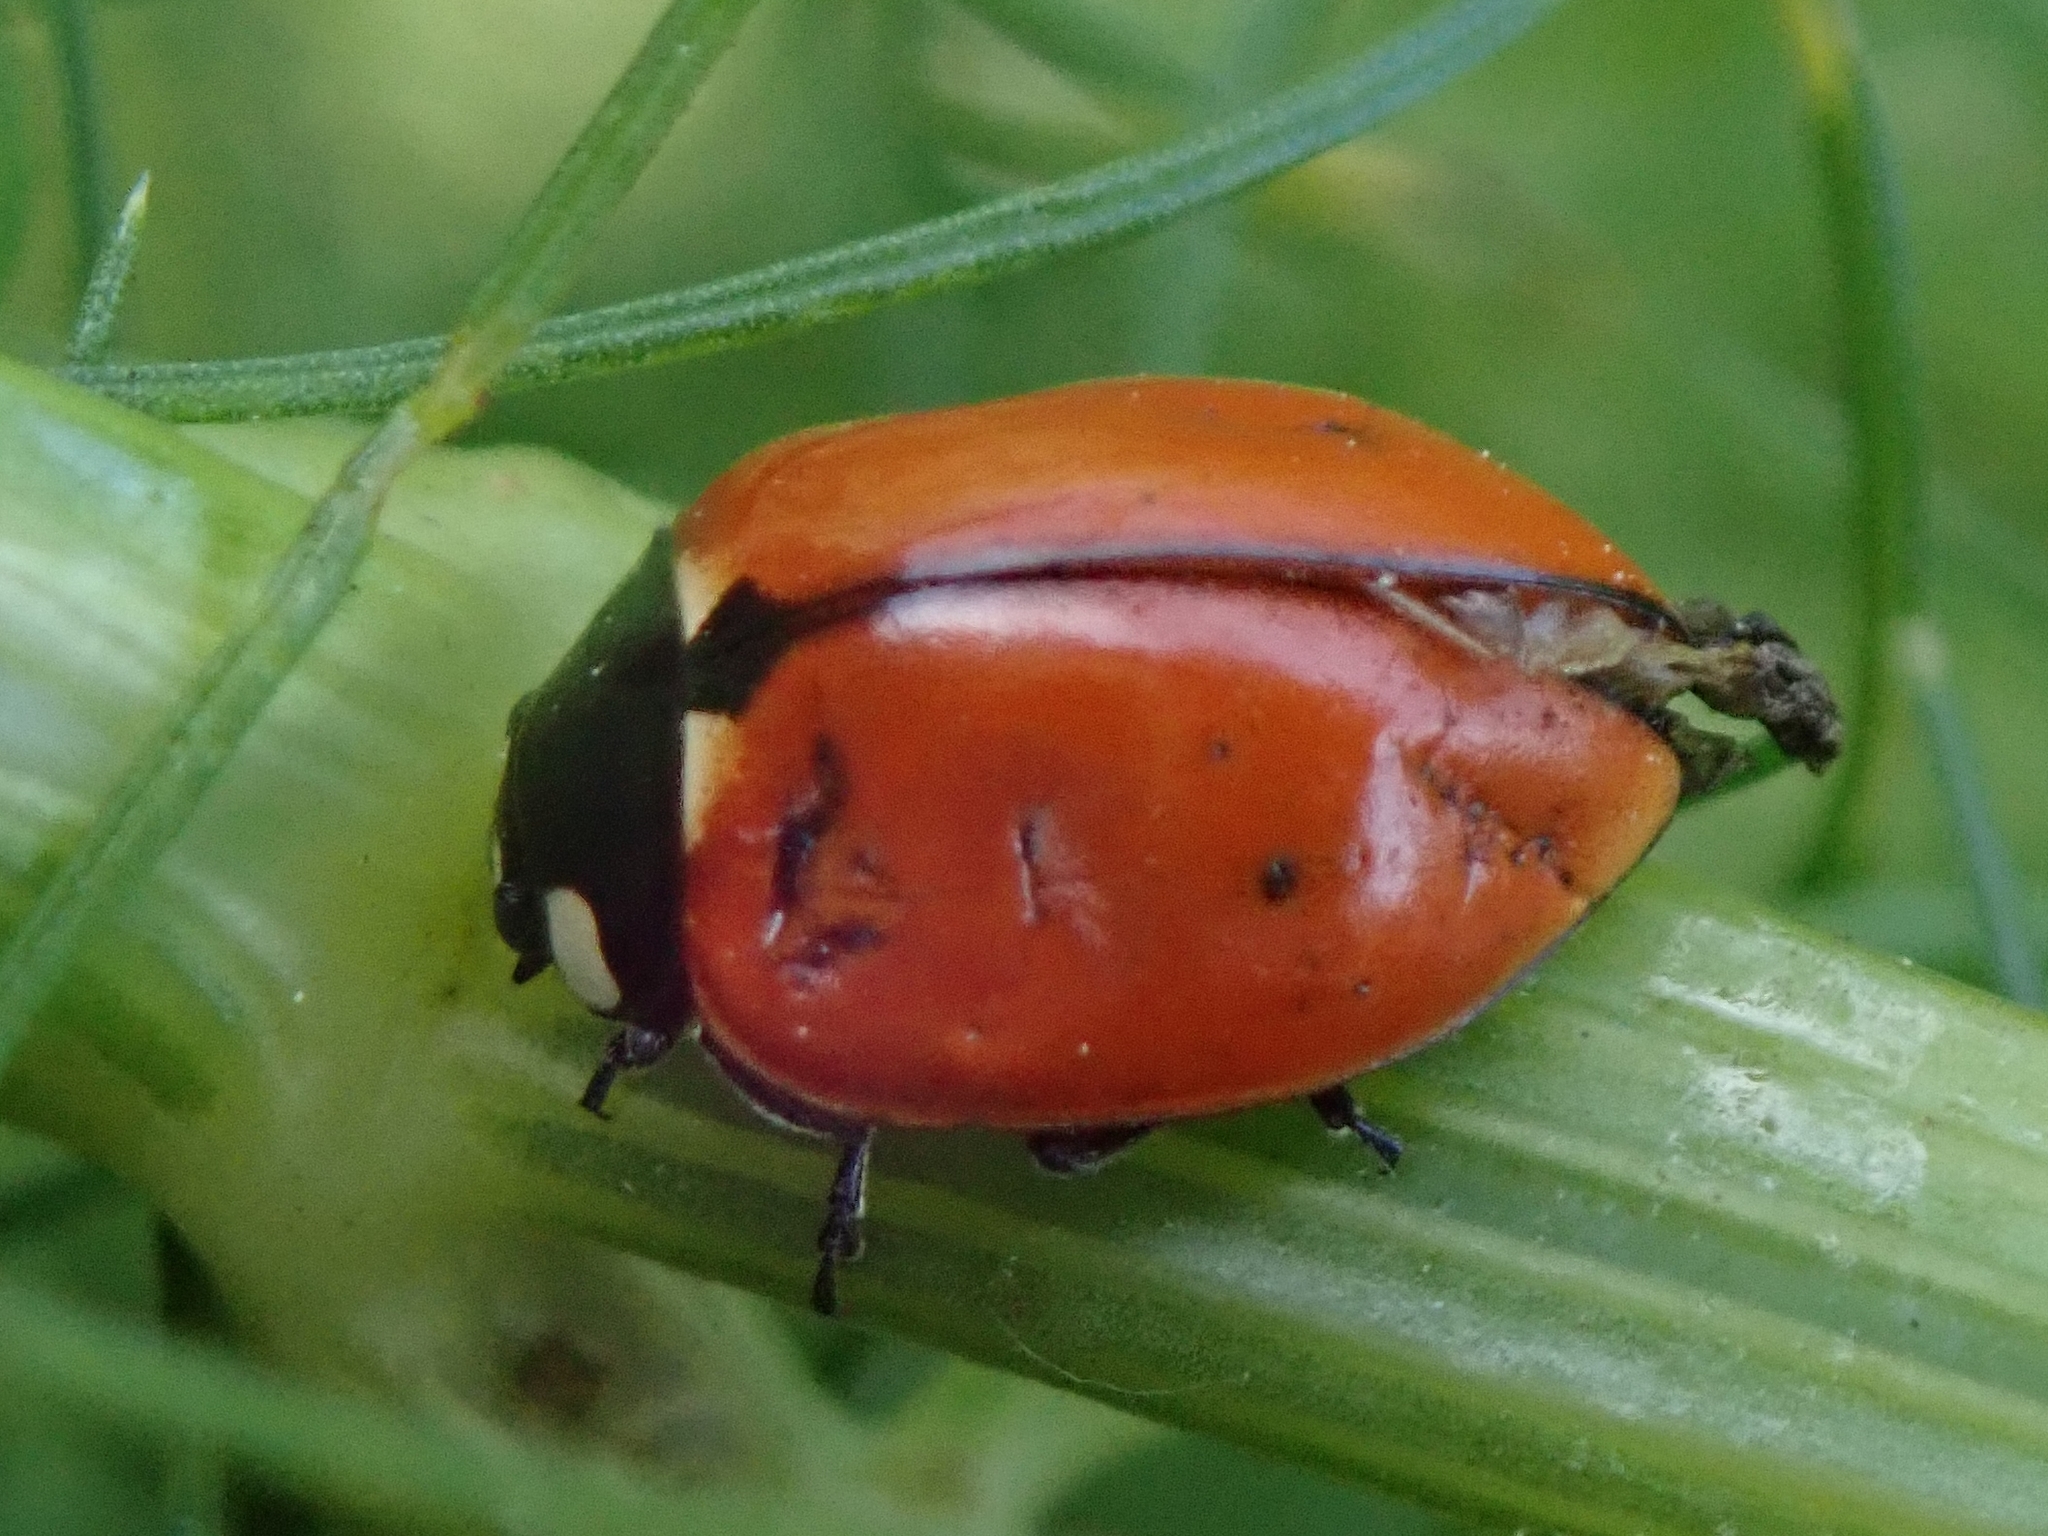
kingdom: Animalia
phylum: Arthropoda
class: Insecta
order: Coleoptera
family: Coccinellidae
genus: Coccinella
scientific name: Coccinella californica
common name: Lady beetle
